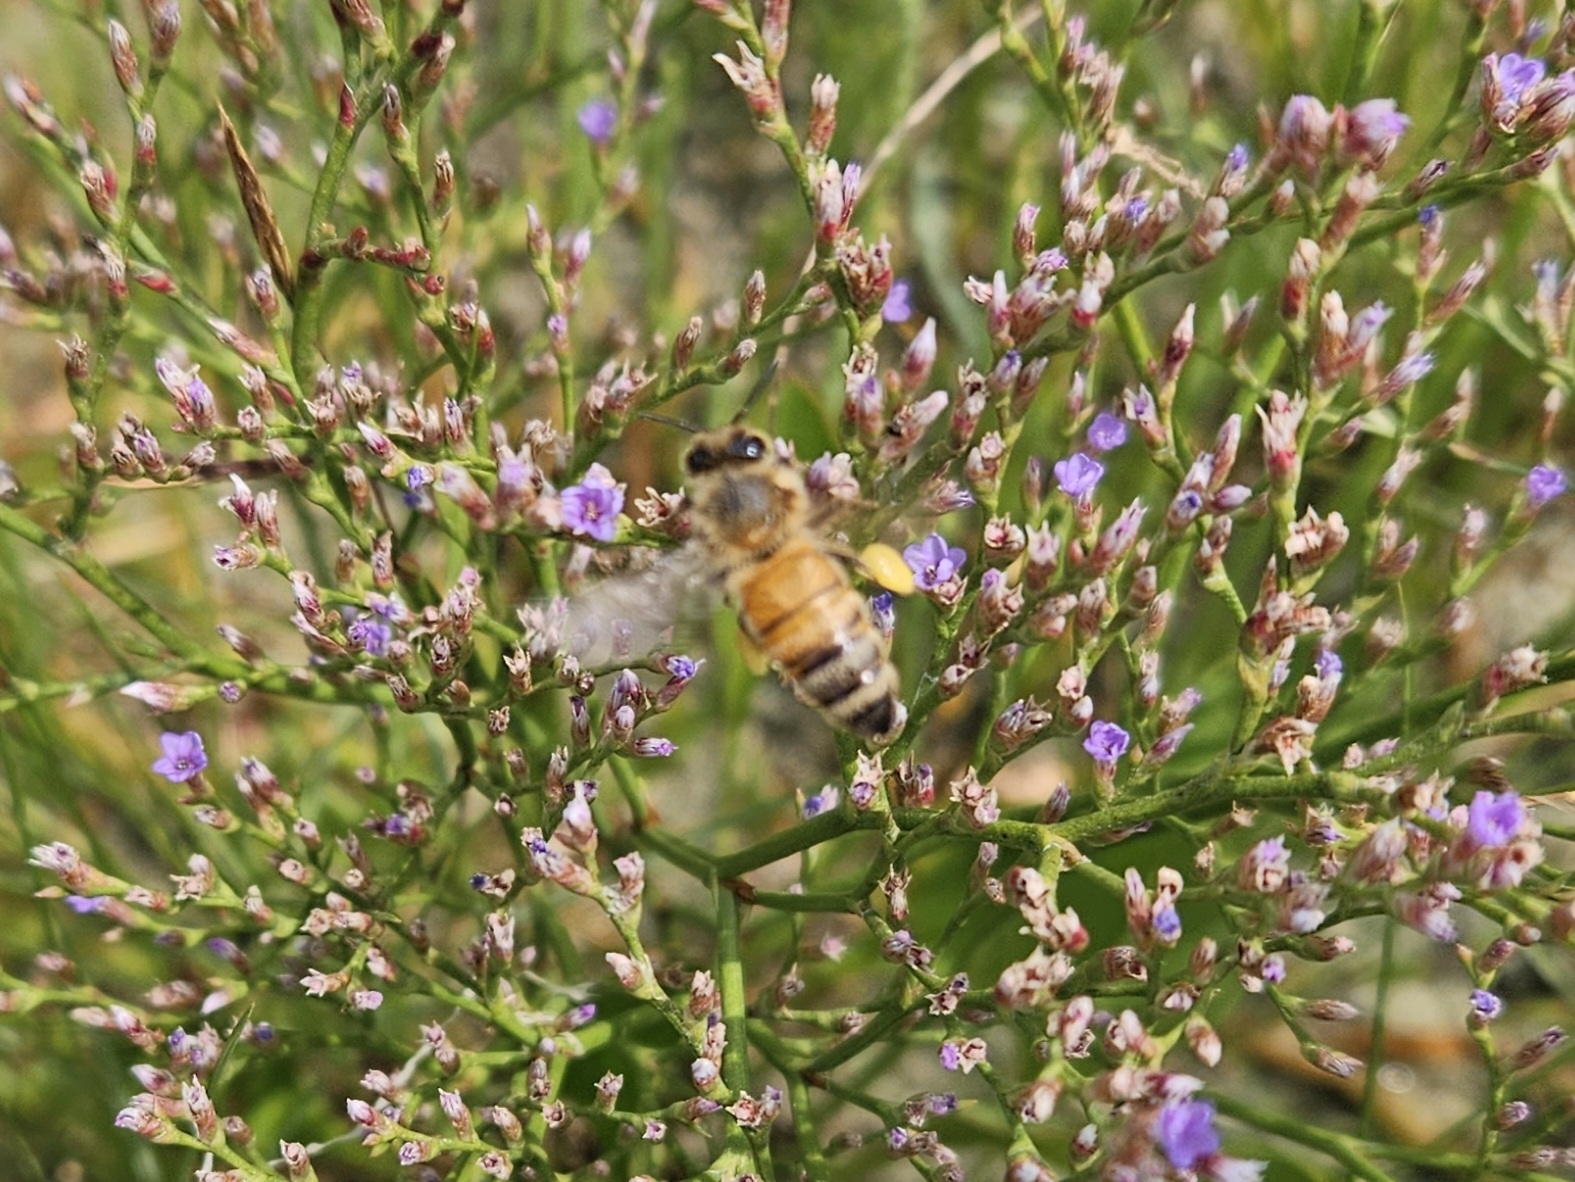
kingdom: Animalia
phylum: Arthropoda
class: Insecta
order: Hymenoptera
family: Apidae
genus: Apis
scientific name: Apis mellifera
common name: Honey bee
